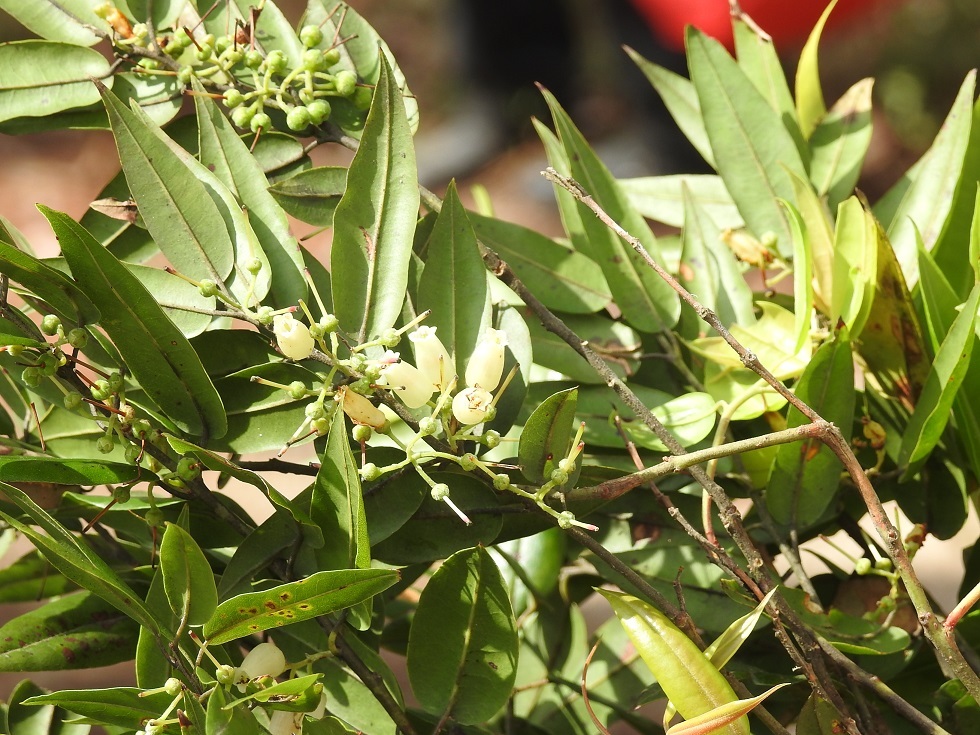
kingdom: Plantae
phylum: Tracheophyta
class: Magnoliopsida
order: Ericales
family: Ericaceae
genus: Agarista
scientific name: Agarista mexicana
